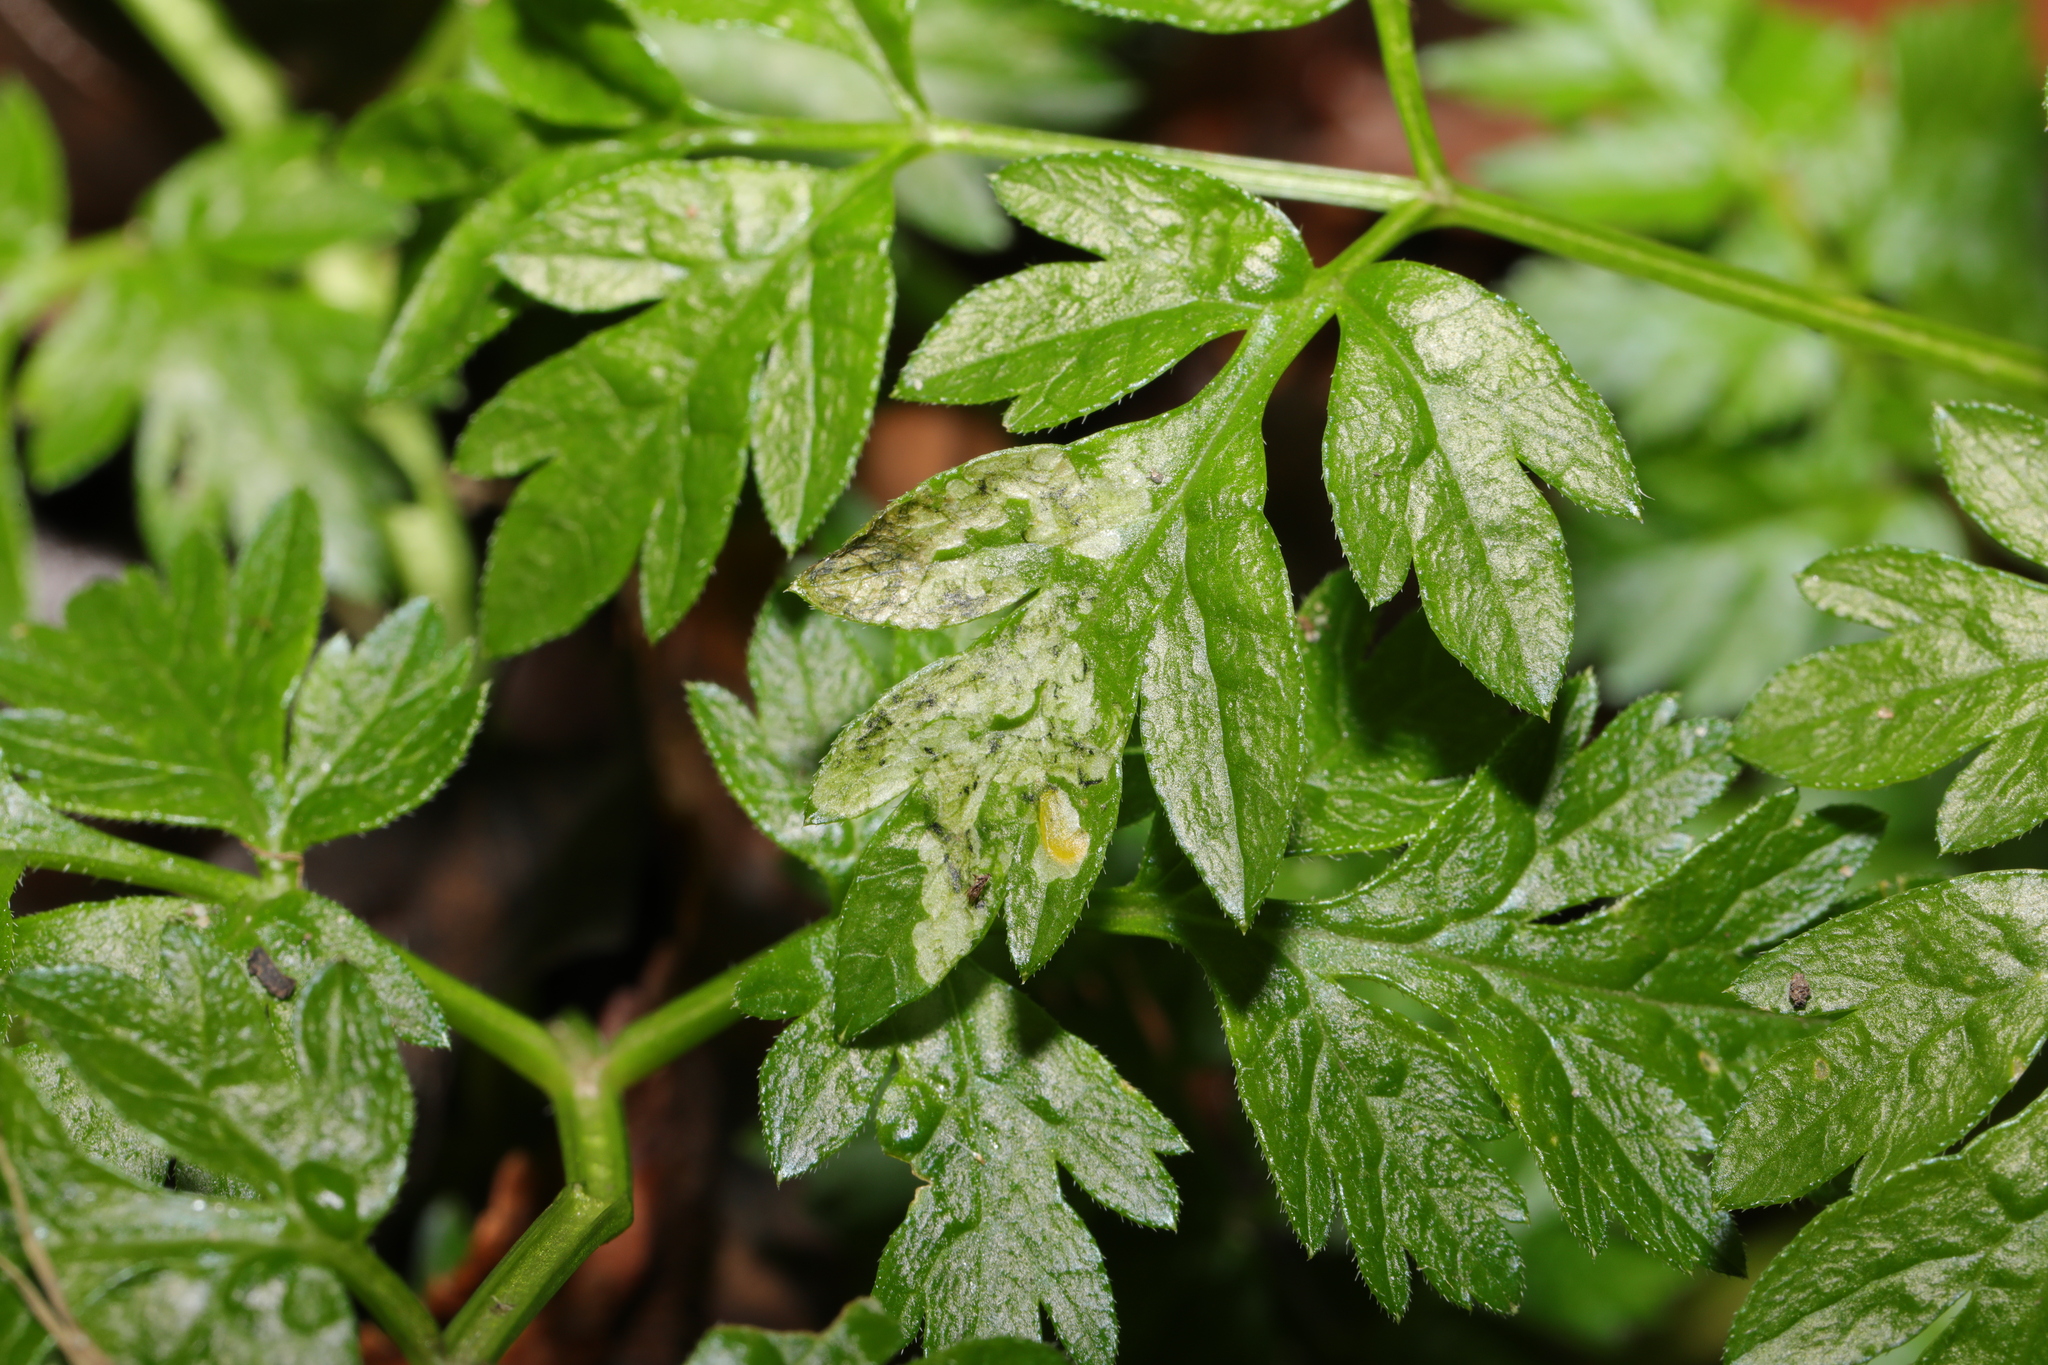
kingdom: Animalia
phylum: Arthropoda
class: Insecta
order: Diptera
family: Agromyzidae
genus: Phytomyza
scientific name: Phytomyza chaerophylli
